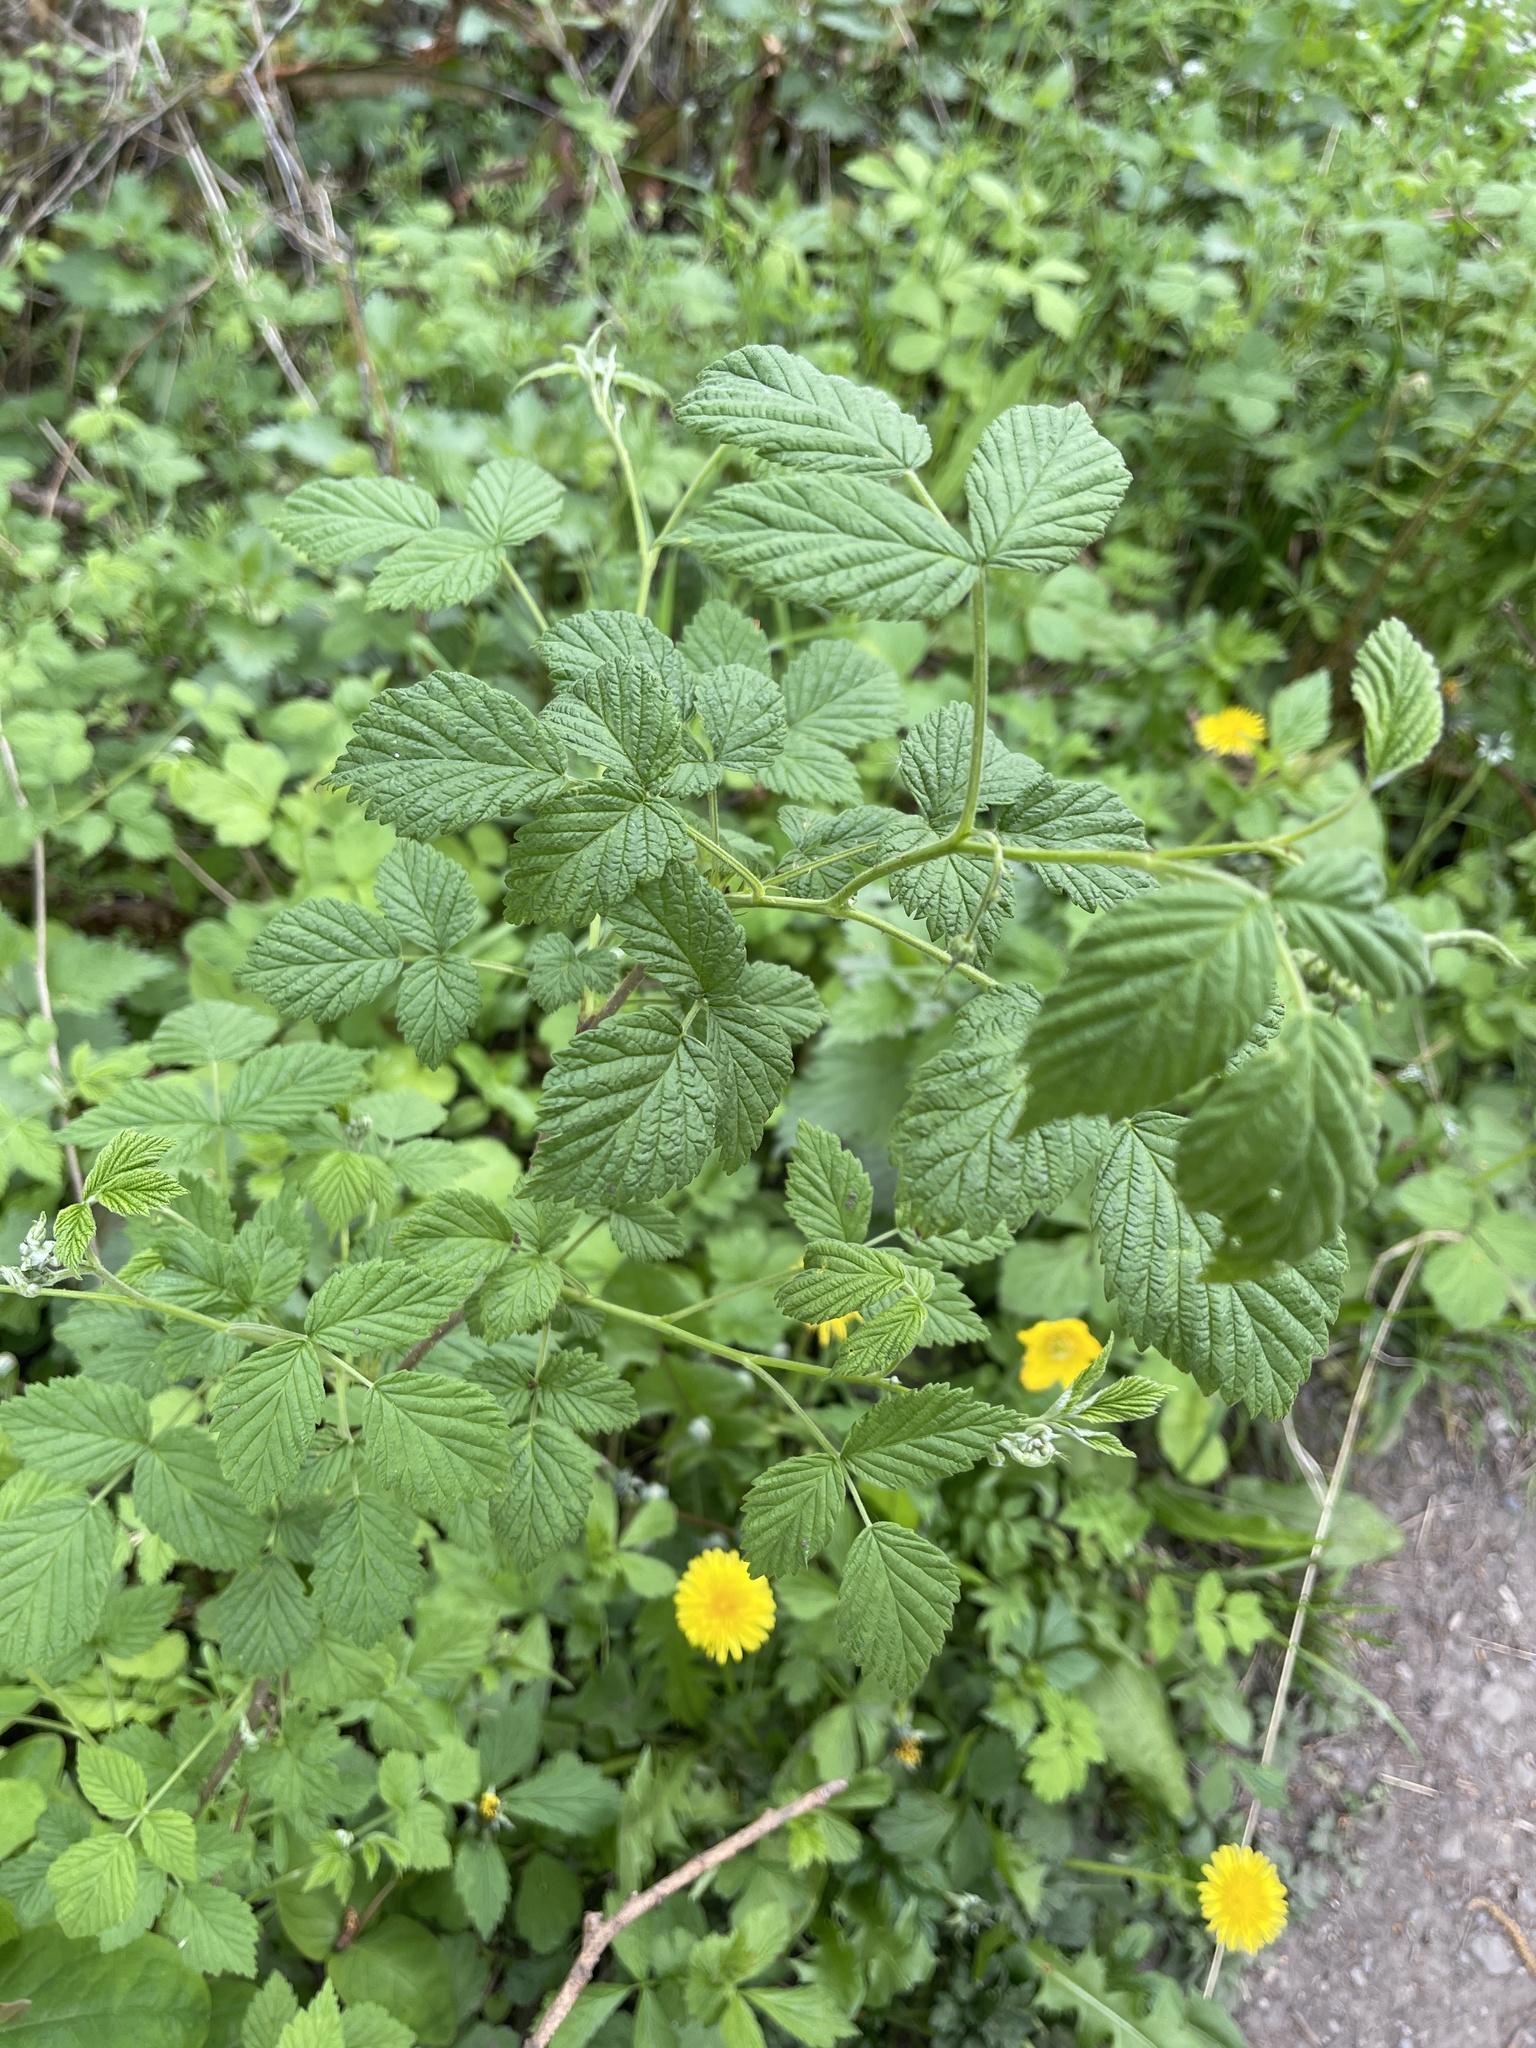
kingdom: Plantae
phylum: Tracheophyta
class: Magnoliopsida
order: Rosales
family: Rosaceae
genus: Rubus
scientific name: Rubus idaeus
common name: Raspberry
